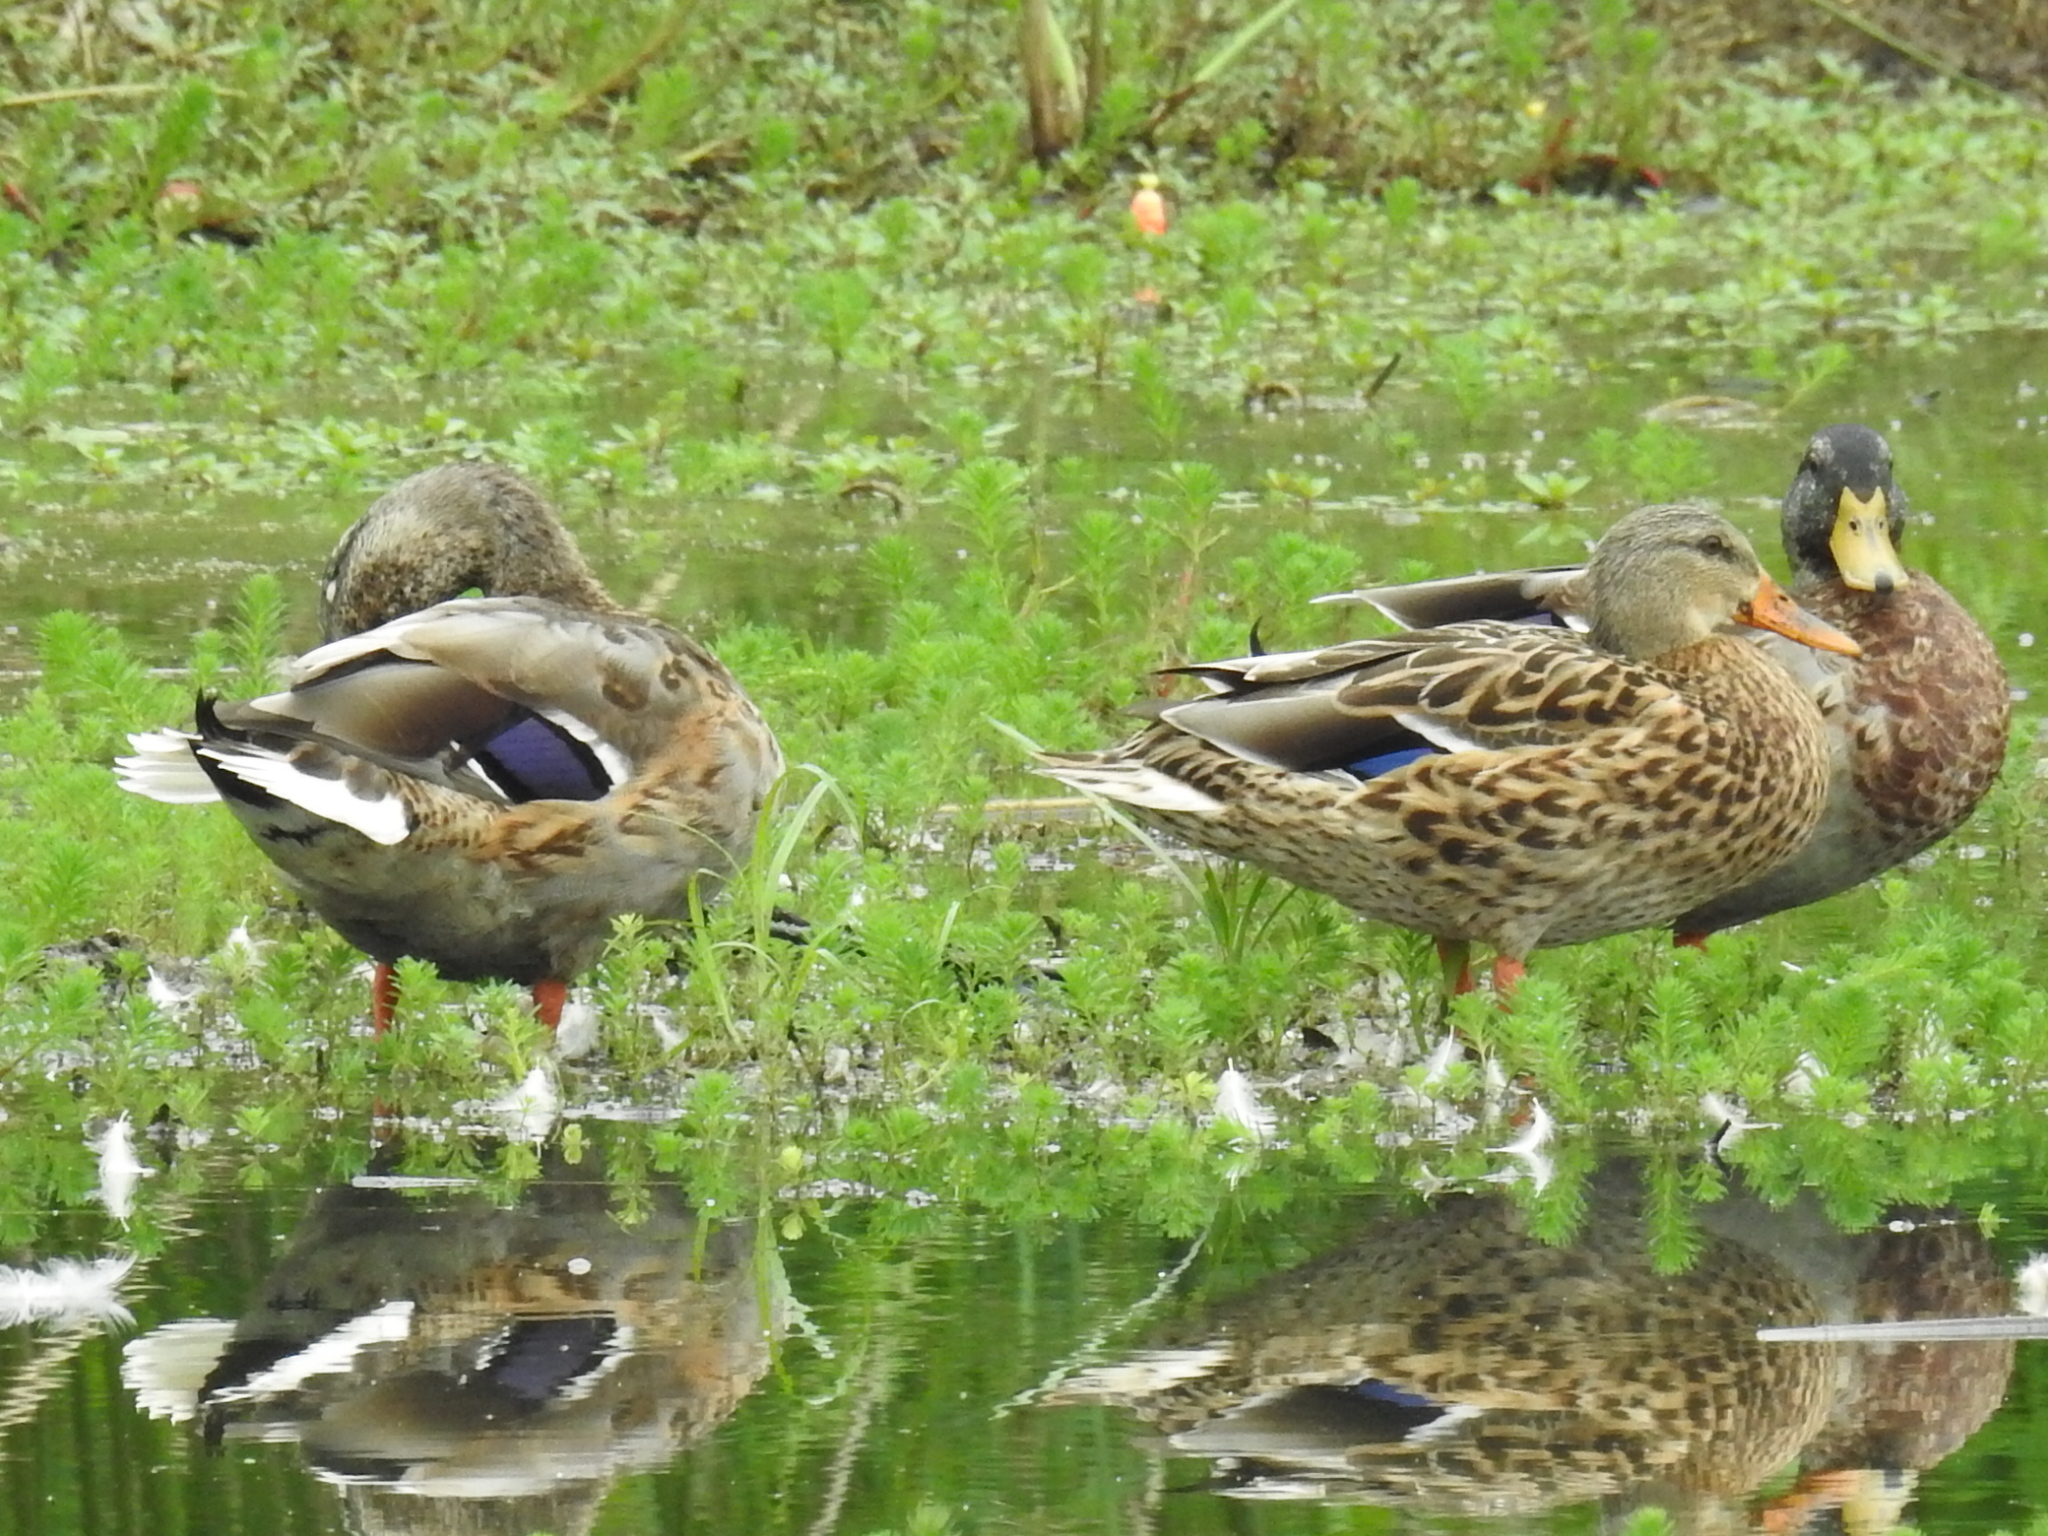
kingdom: Animalia
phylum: Chordata
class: Aves
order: Anseriformes
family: Anatidae
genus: Anas
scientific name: Anas platyrhynchos
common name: Mallard
